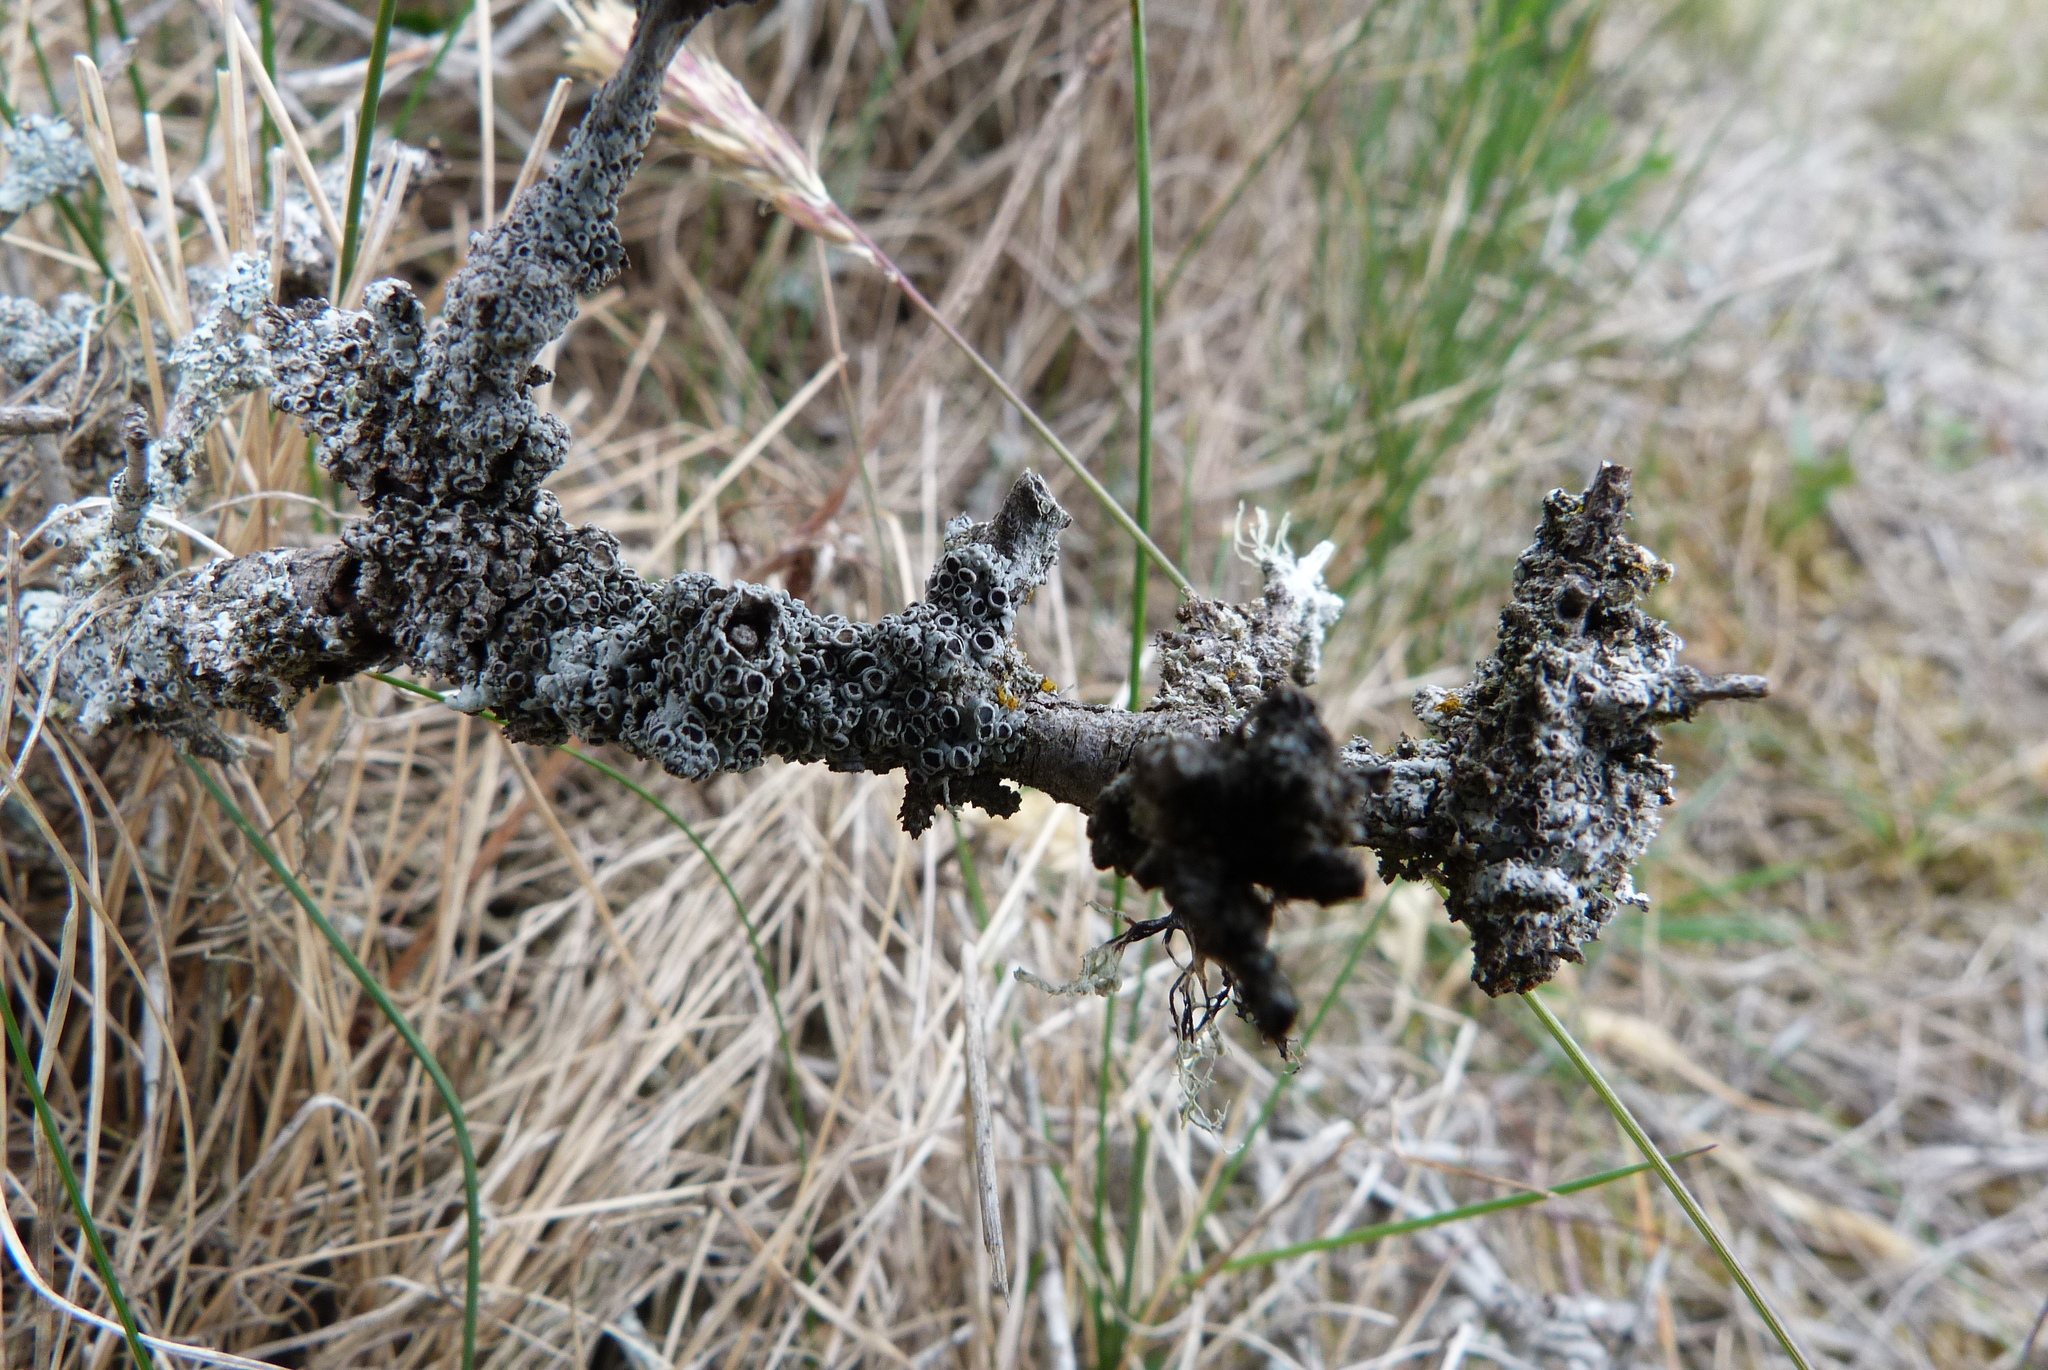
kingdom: Fungi
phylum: Ascomycota
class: Lecanoromycetes
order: Caliciales
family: Physciaceae
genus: Kashiwadia
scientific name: Kashiwadia jackii
